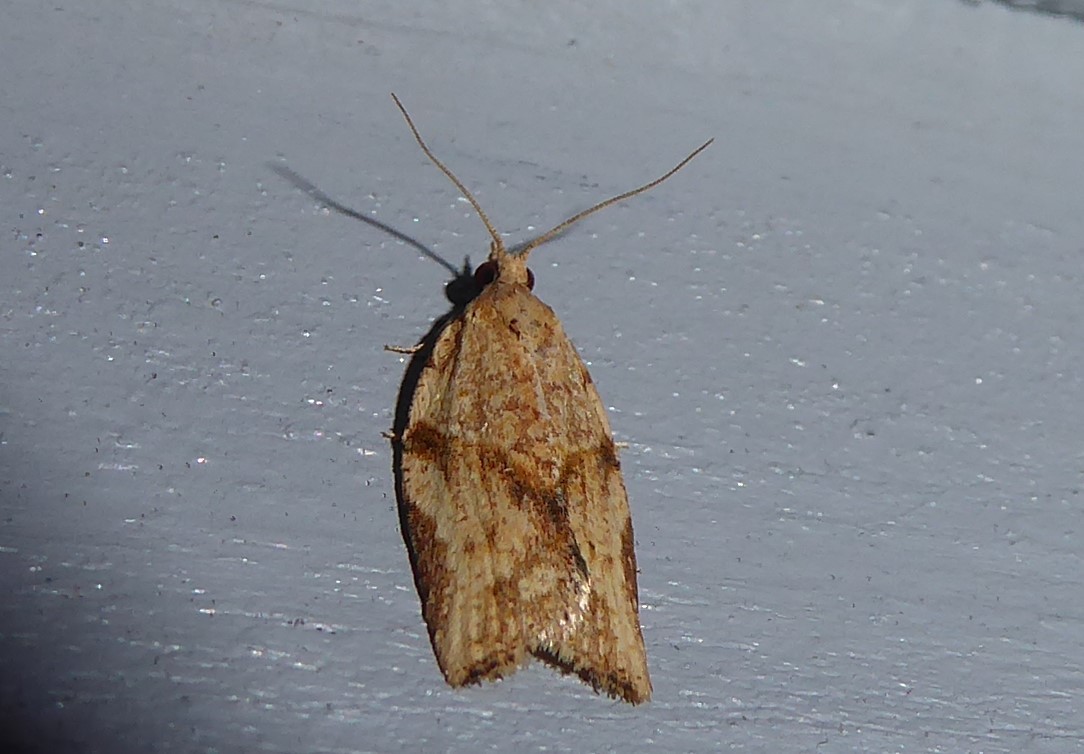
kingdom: Animalia
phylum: Arthropoda
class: Insecta
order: Lepidoptera
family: Tortricidae
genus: Epiphyas
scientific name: Epiphyas postvittana
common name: Light brown apple moth
